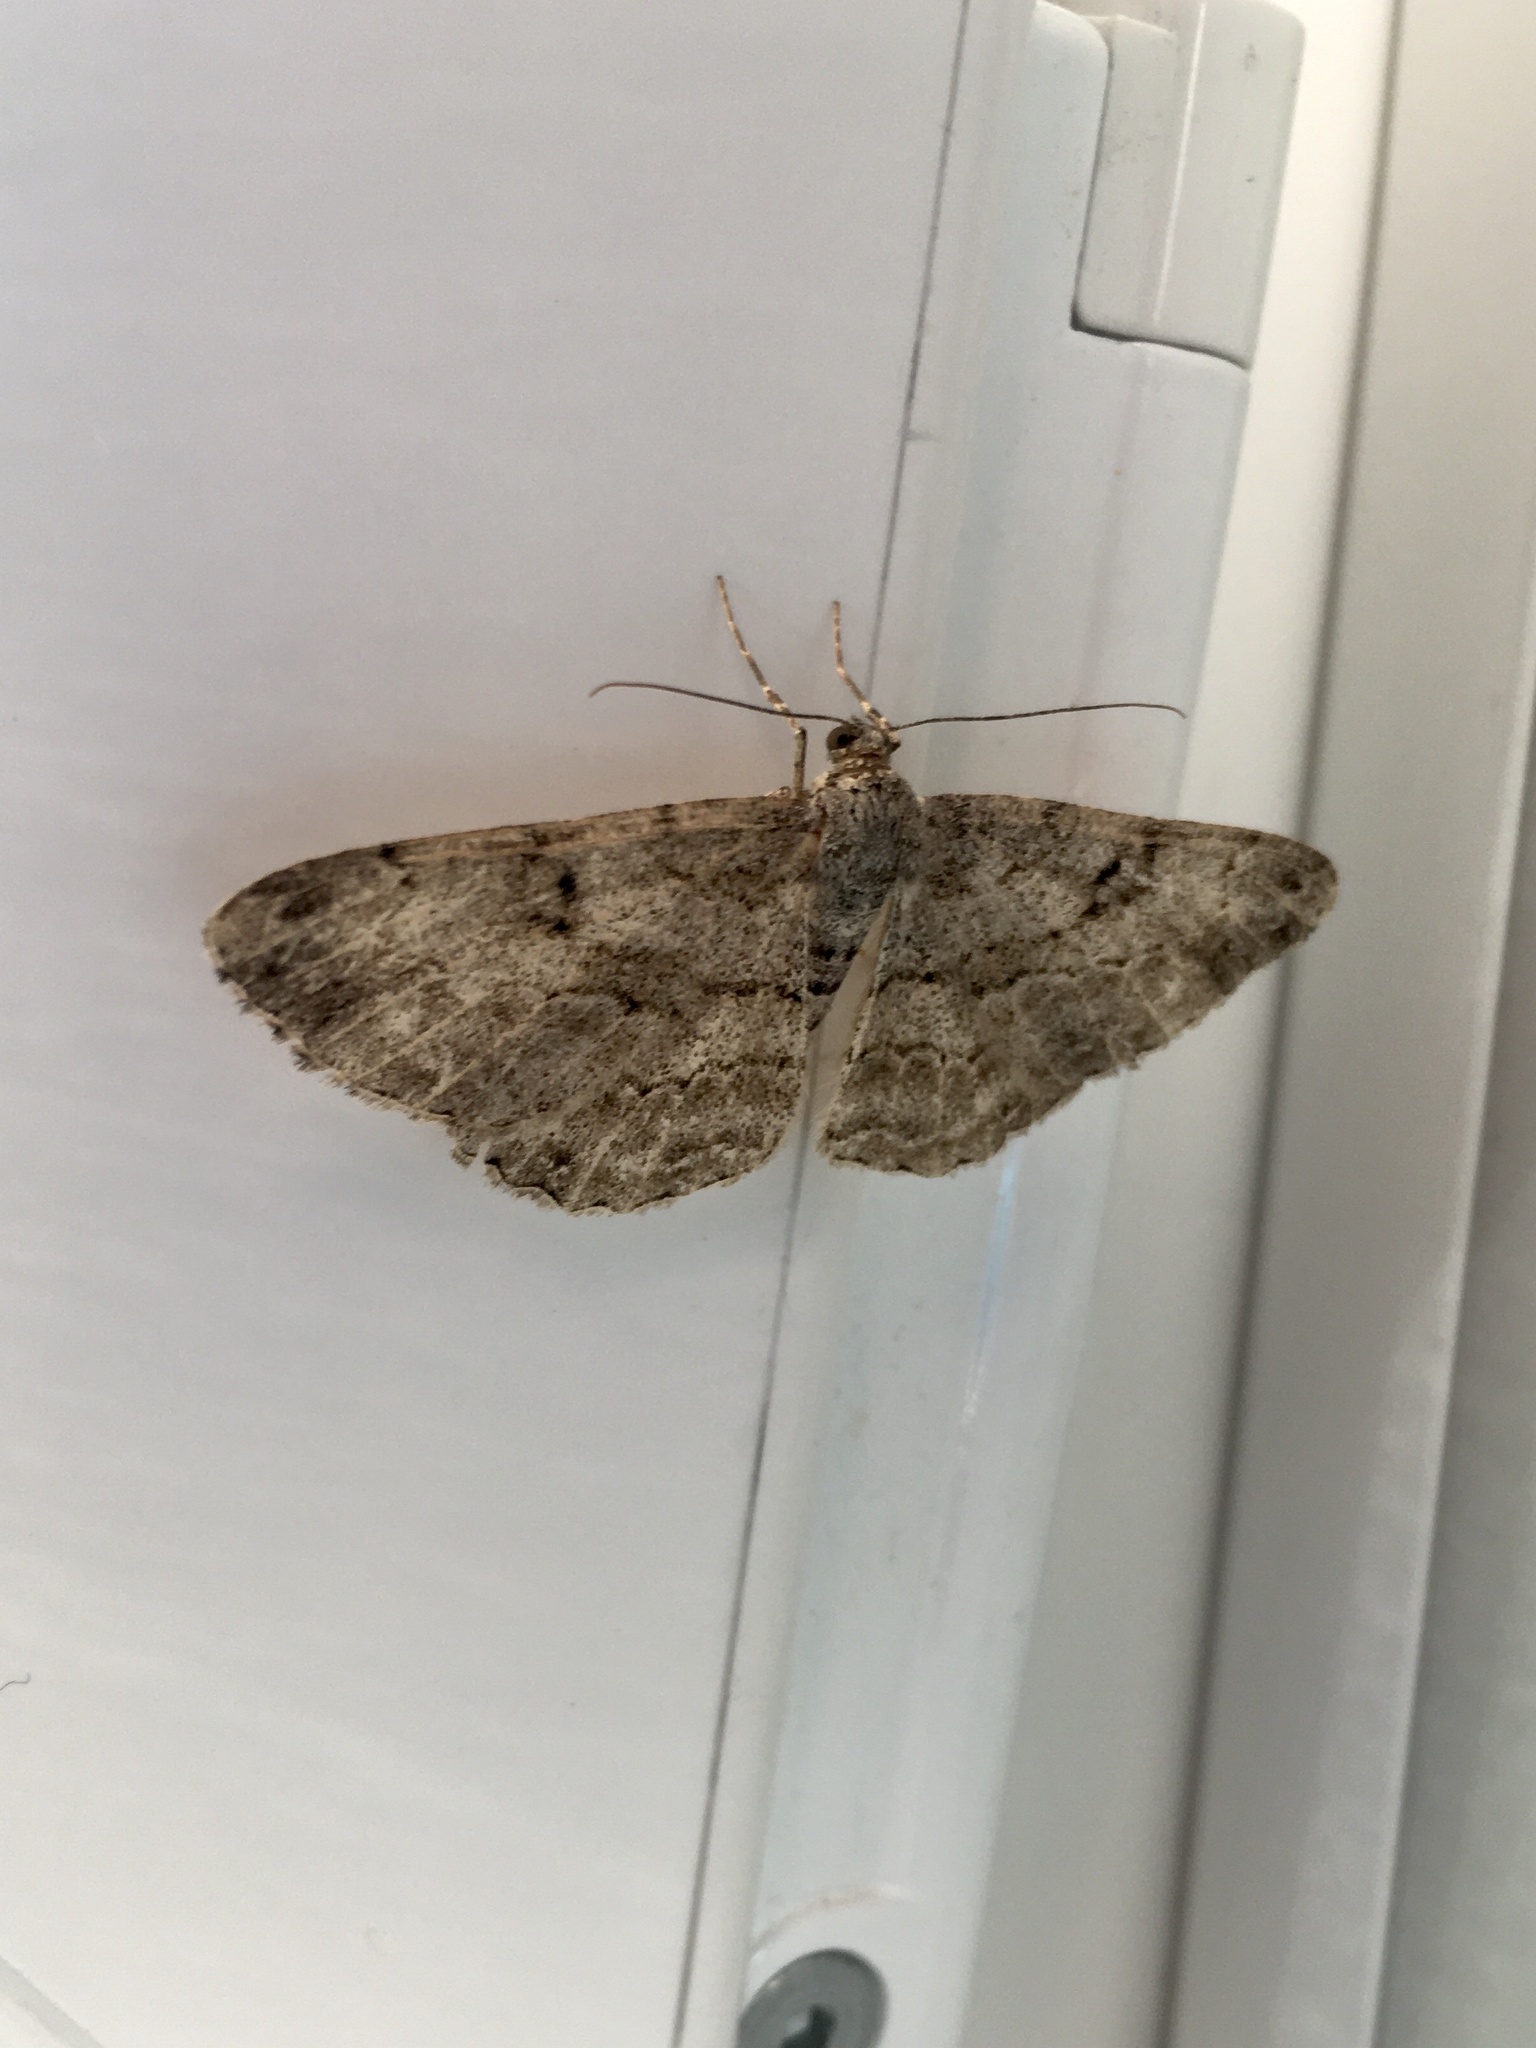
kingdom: Animalia
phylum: Arthropoda
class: Insecta
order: Lepidoptera
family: Geometridae
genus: Peribatodes
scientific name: Peribatodes rhomboidaria
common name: Willow beauty
